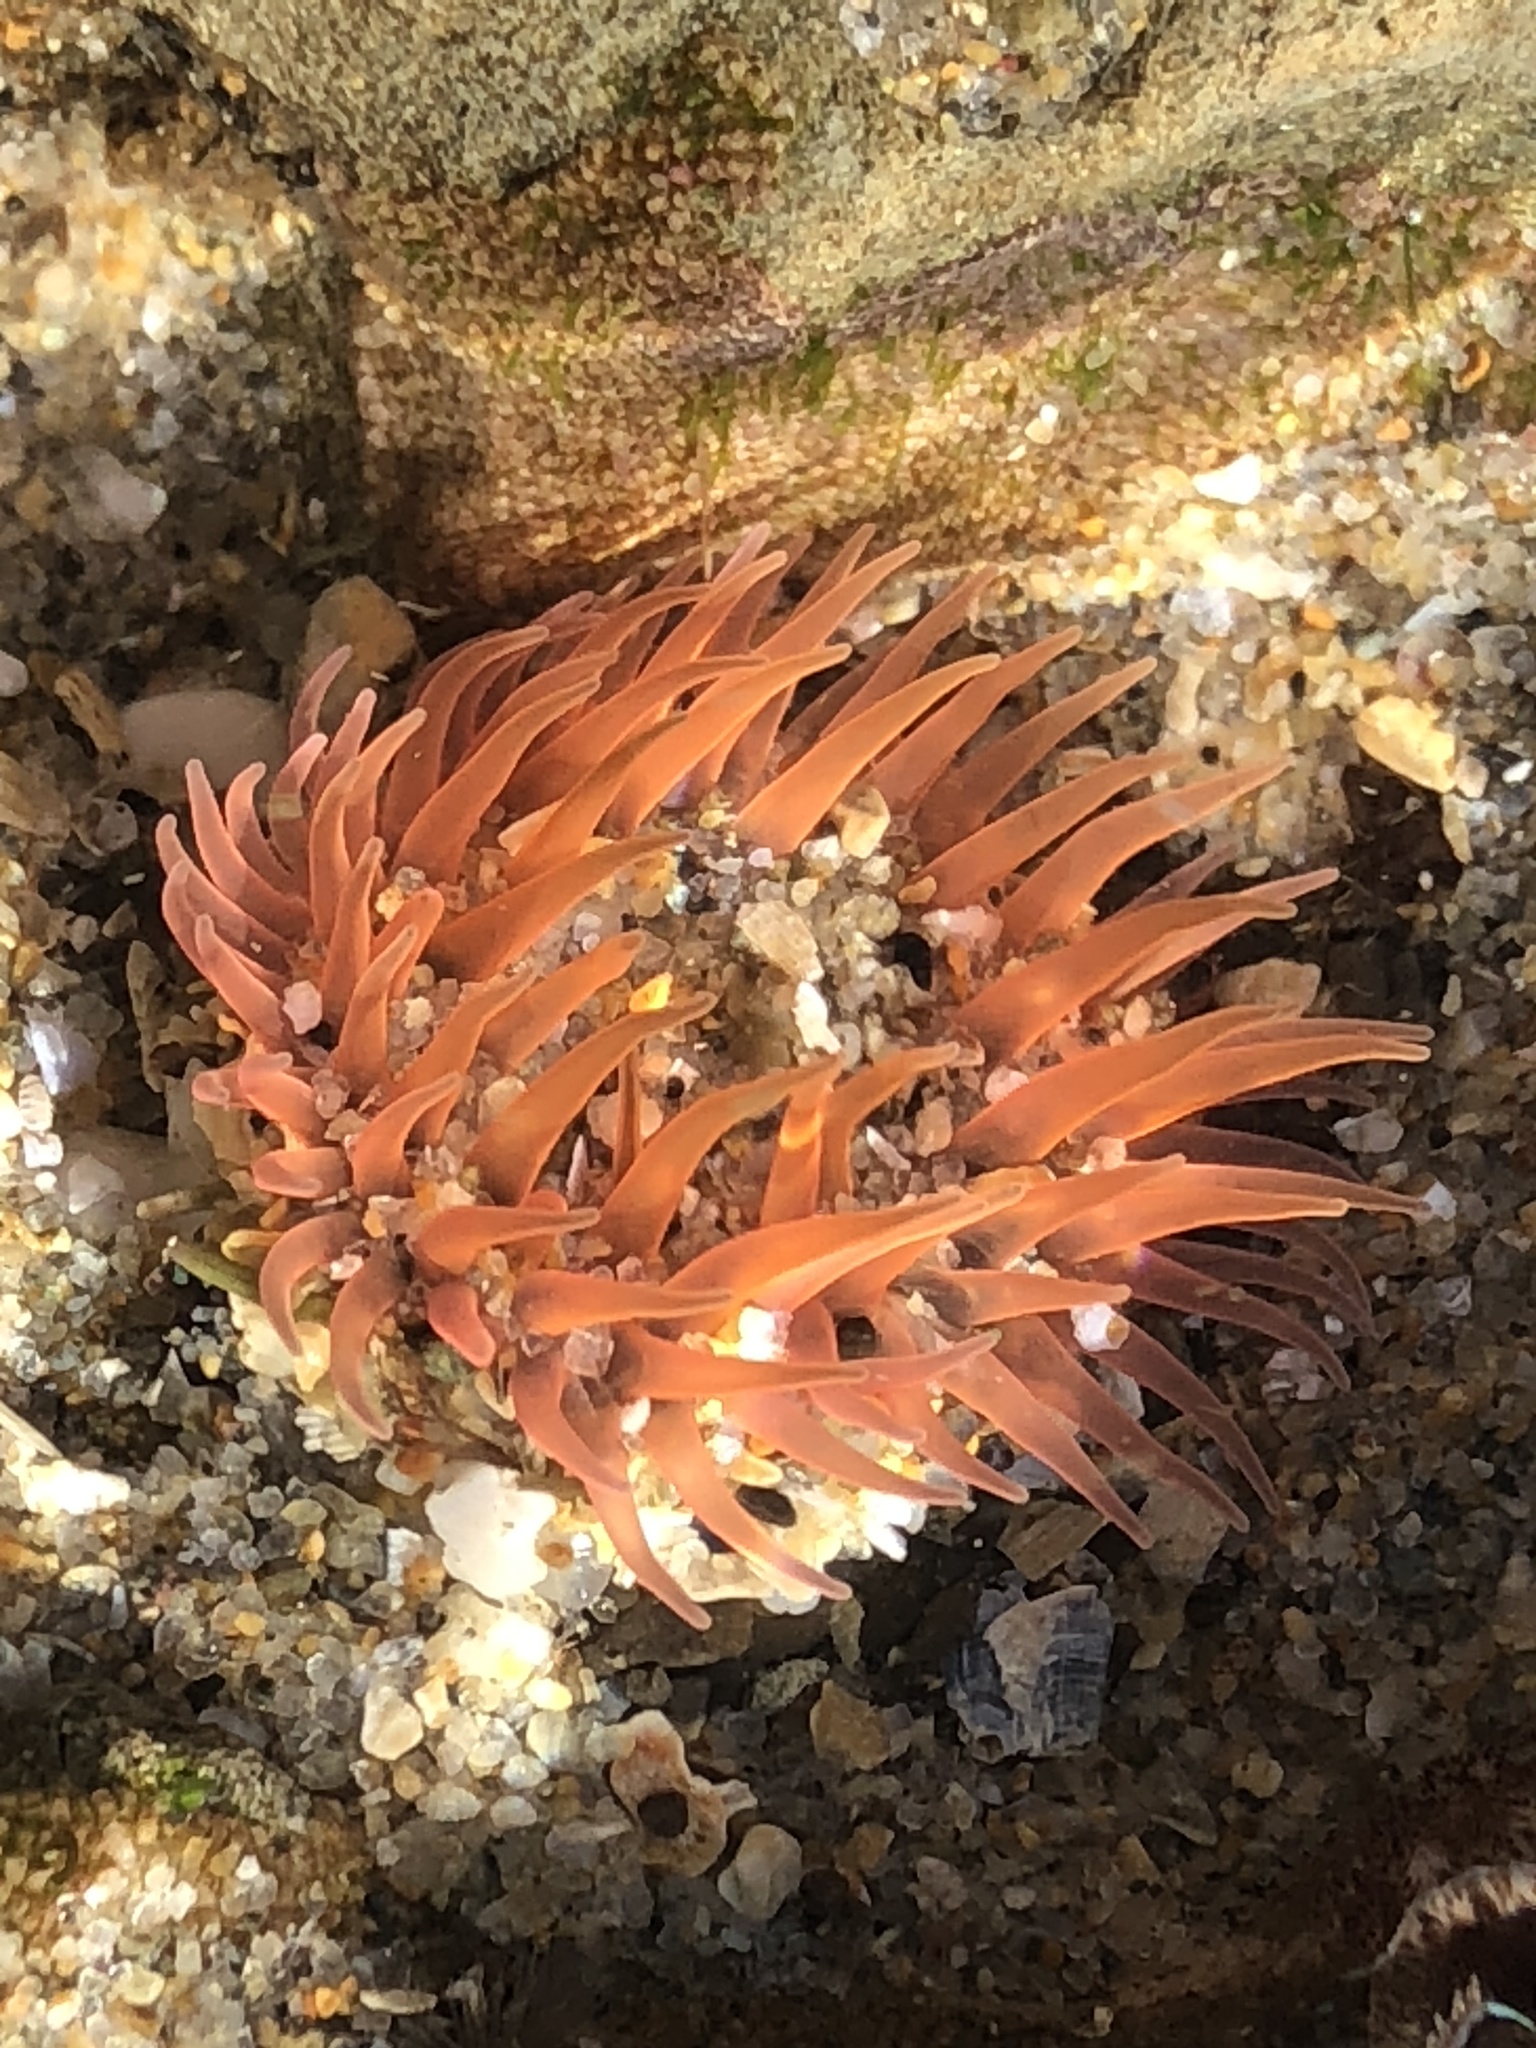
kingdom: Animalia
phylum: Cnidaria
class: Anthozoa
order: Actiniaria
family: Actiniidae
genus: Anthopleura
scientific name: Anthopleura artemisia
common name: Buried sea anemone
